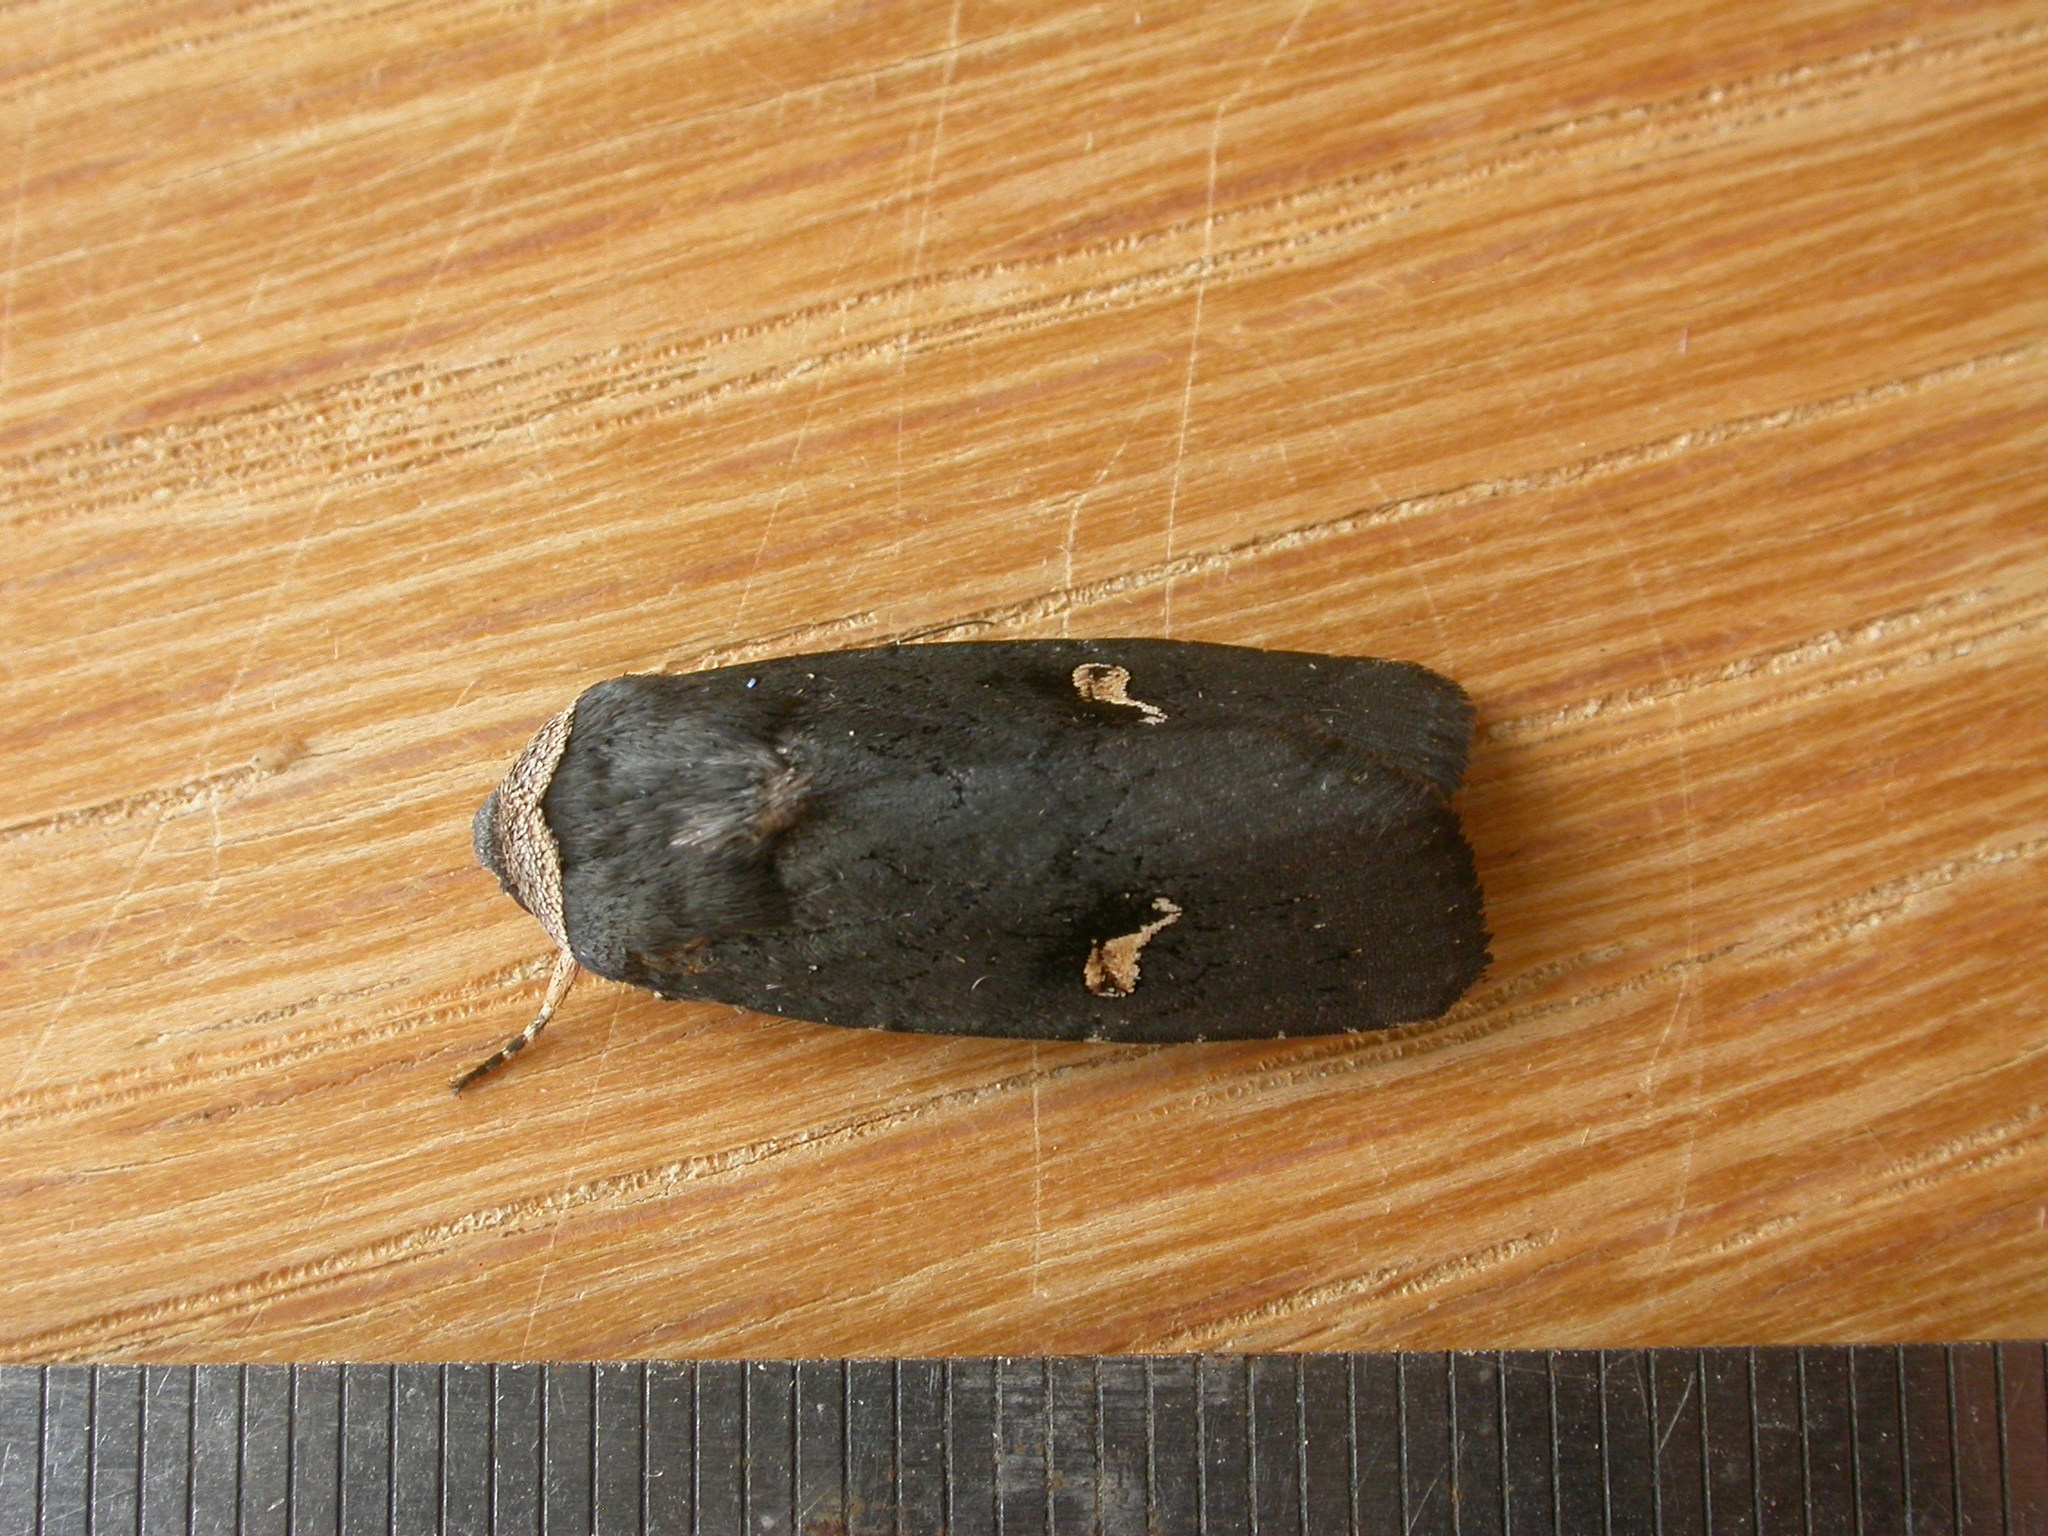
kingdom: Animalia
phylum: Arthropoda
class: Insecta
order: Lepidoptera
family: Noctuidae
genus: Proteuxoa
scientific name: Proteuxoa cinereicollis
